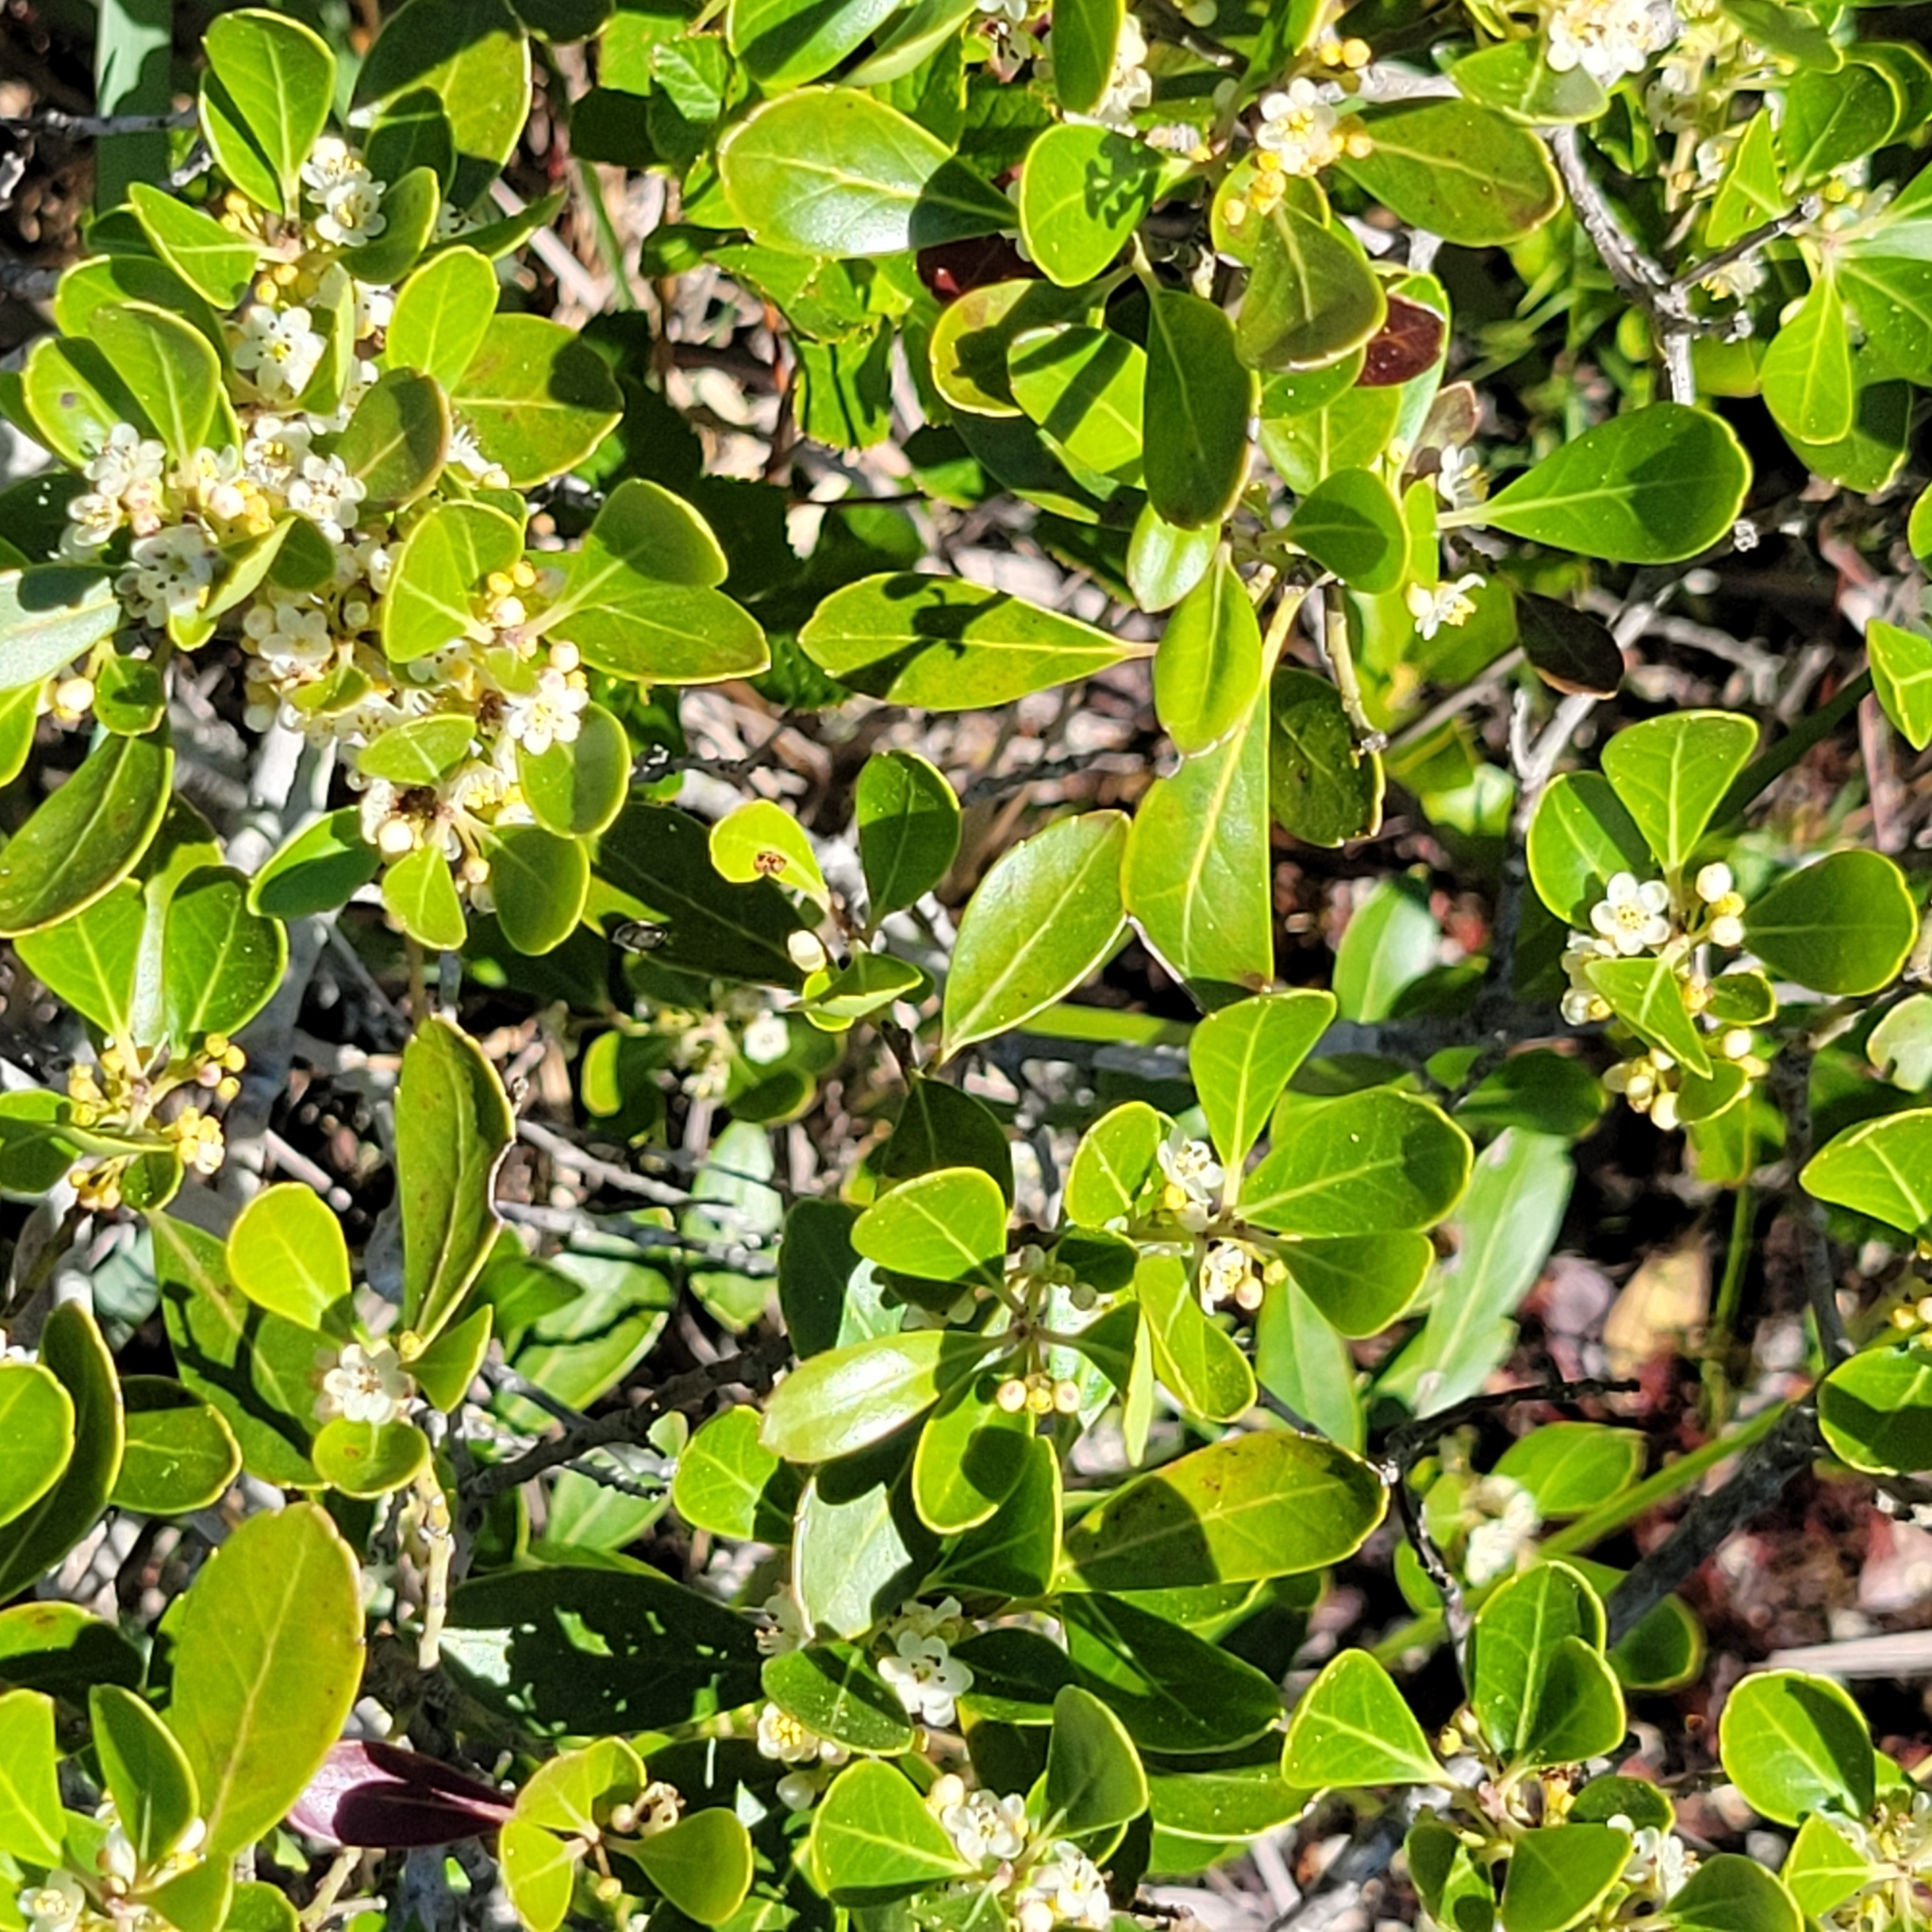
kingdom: Plantae
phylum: Tracheophyta
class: Magnoliopsida
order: Aquifoliales
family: Aquifoliaceae
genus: Ilex
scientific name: Ilex glabra
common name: Bitter gallberry
